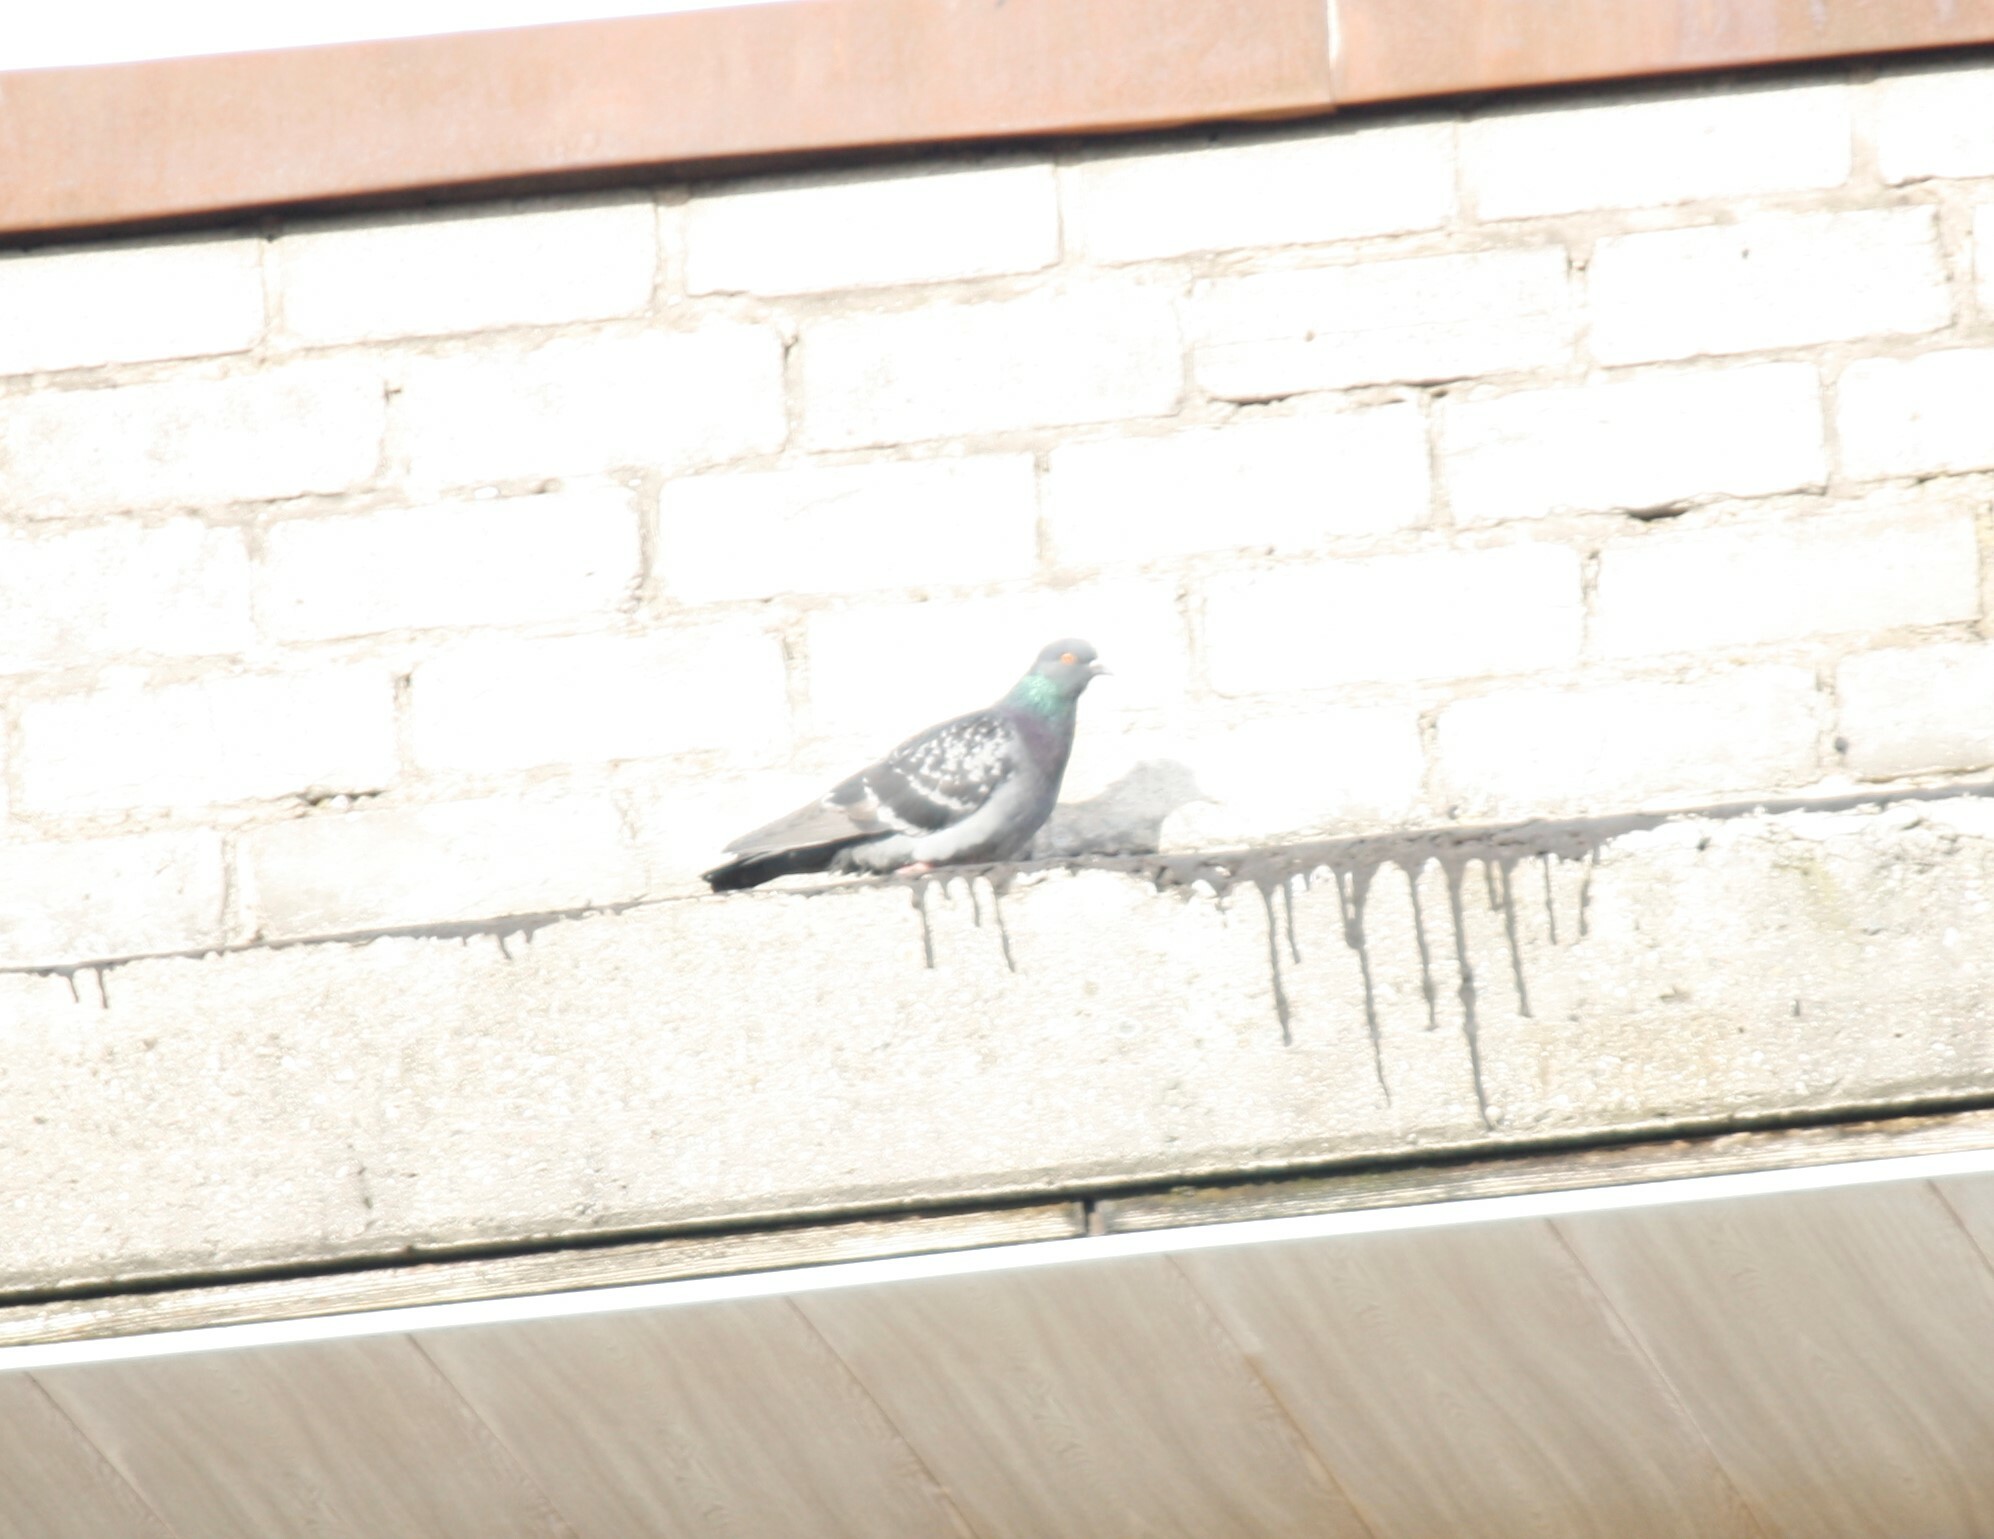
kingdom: Animalia
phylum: Chordata
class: Aves
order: Columbiformes
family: Columbidae
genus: Columba
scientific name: Columba livia
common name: Rock pigeon
